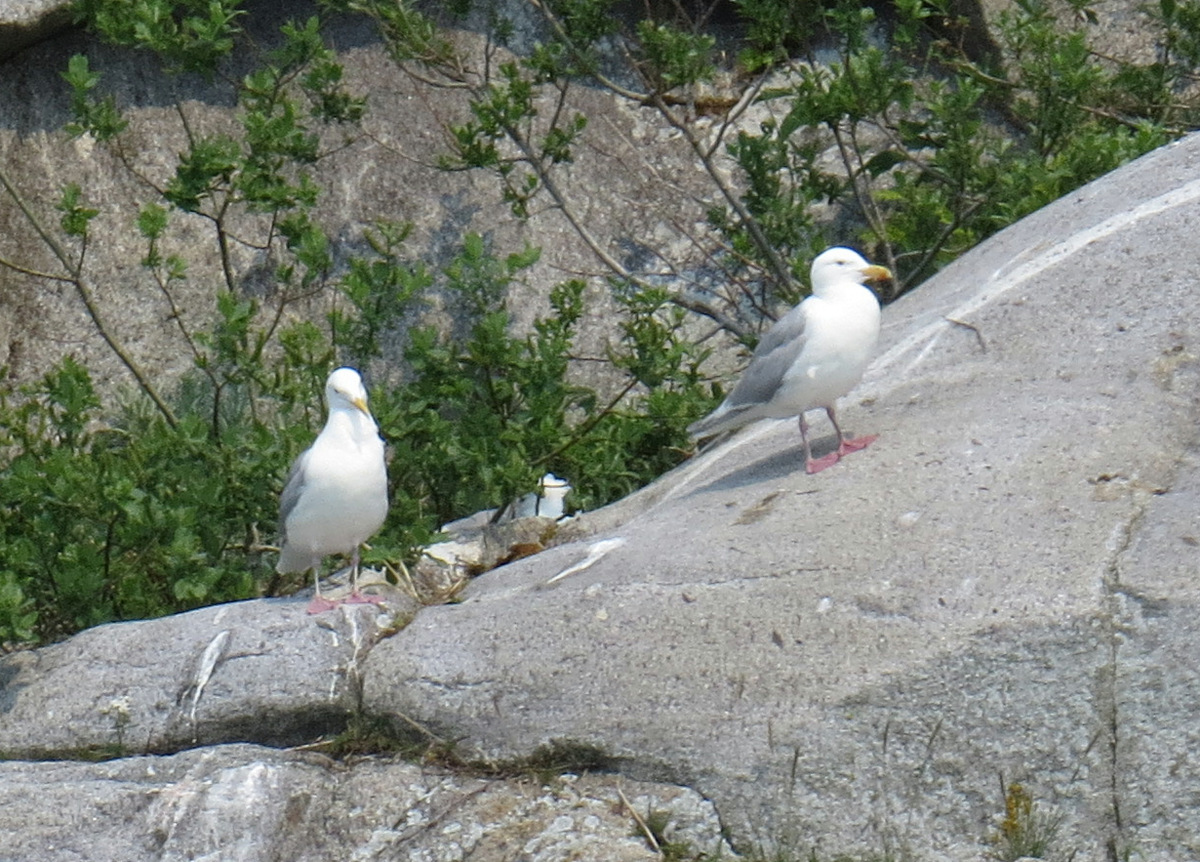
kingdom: Animalia
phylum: Chordata
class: Aves
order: Charadriiformes
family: Laridae
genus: Larus
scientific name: Larus glaucescens
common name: Glaucous-winged gull
